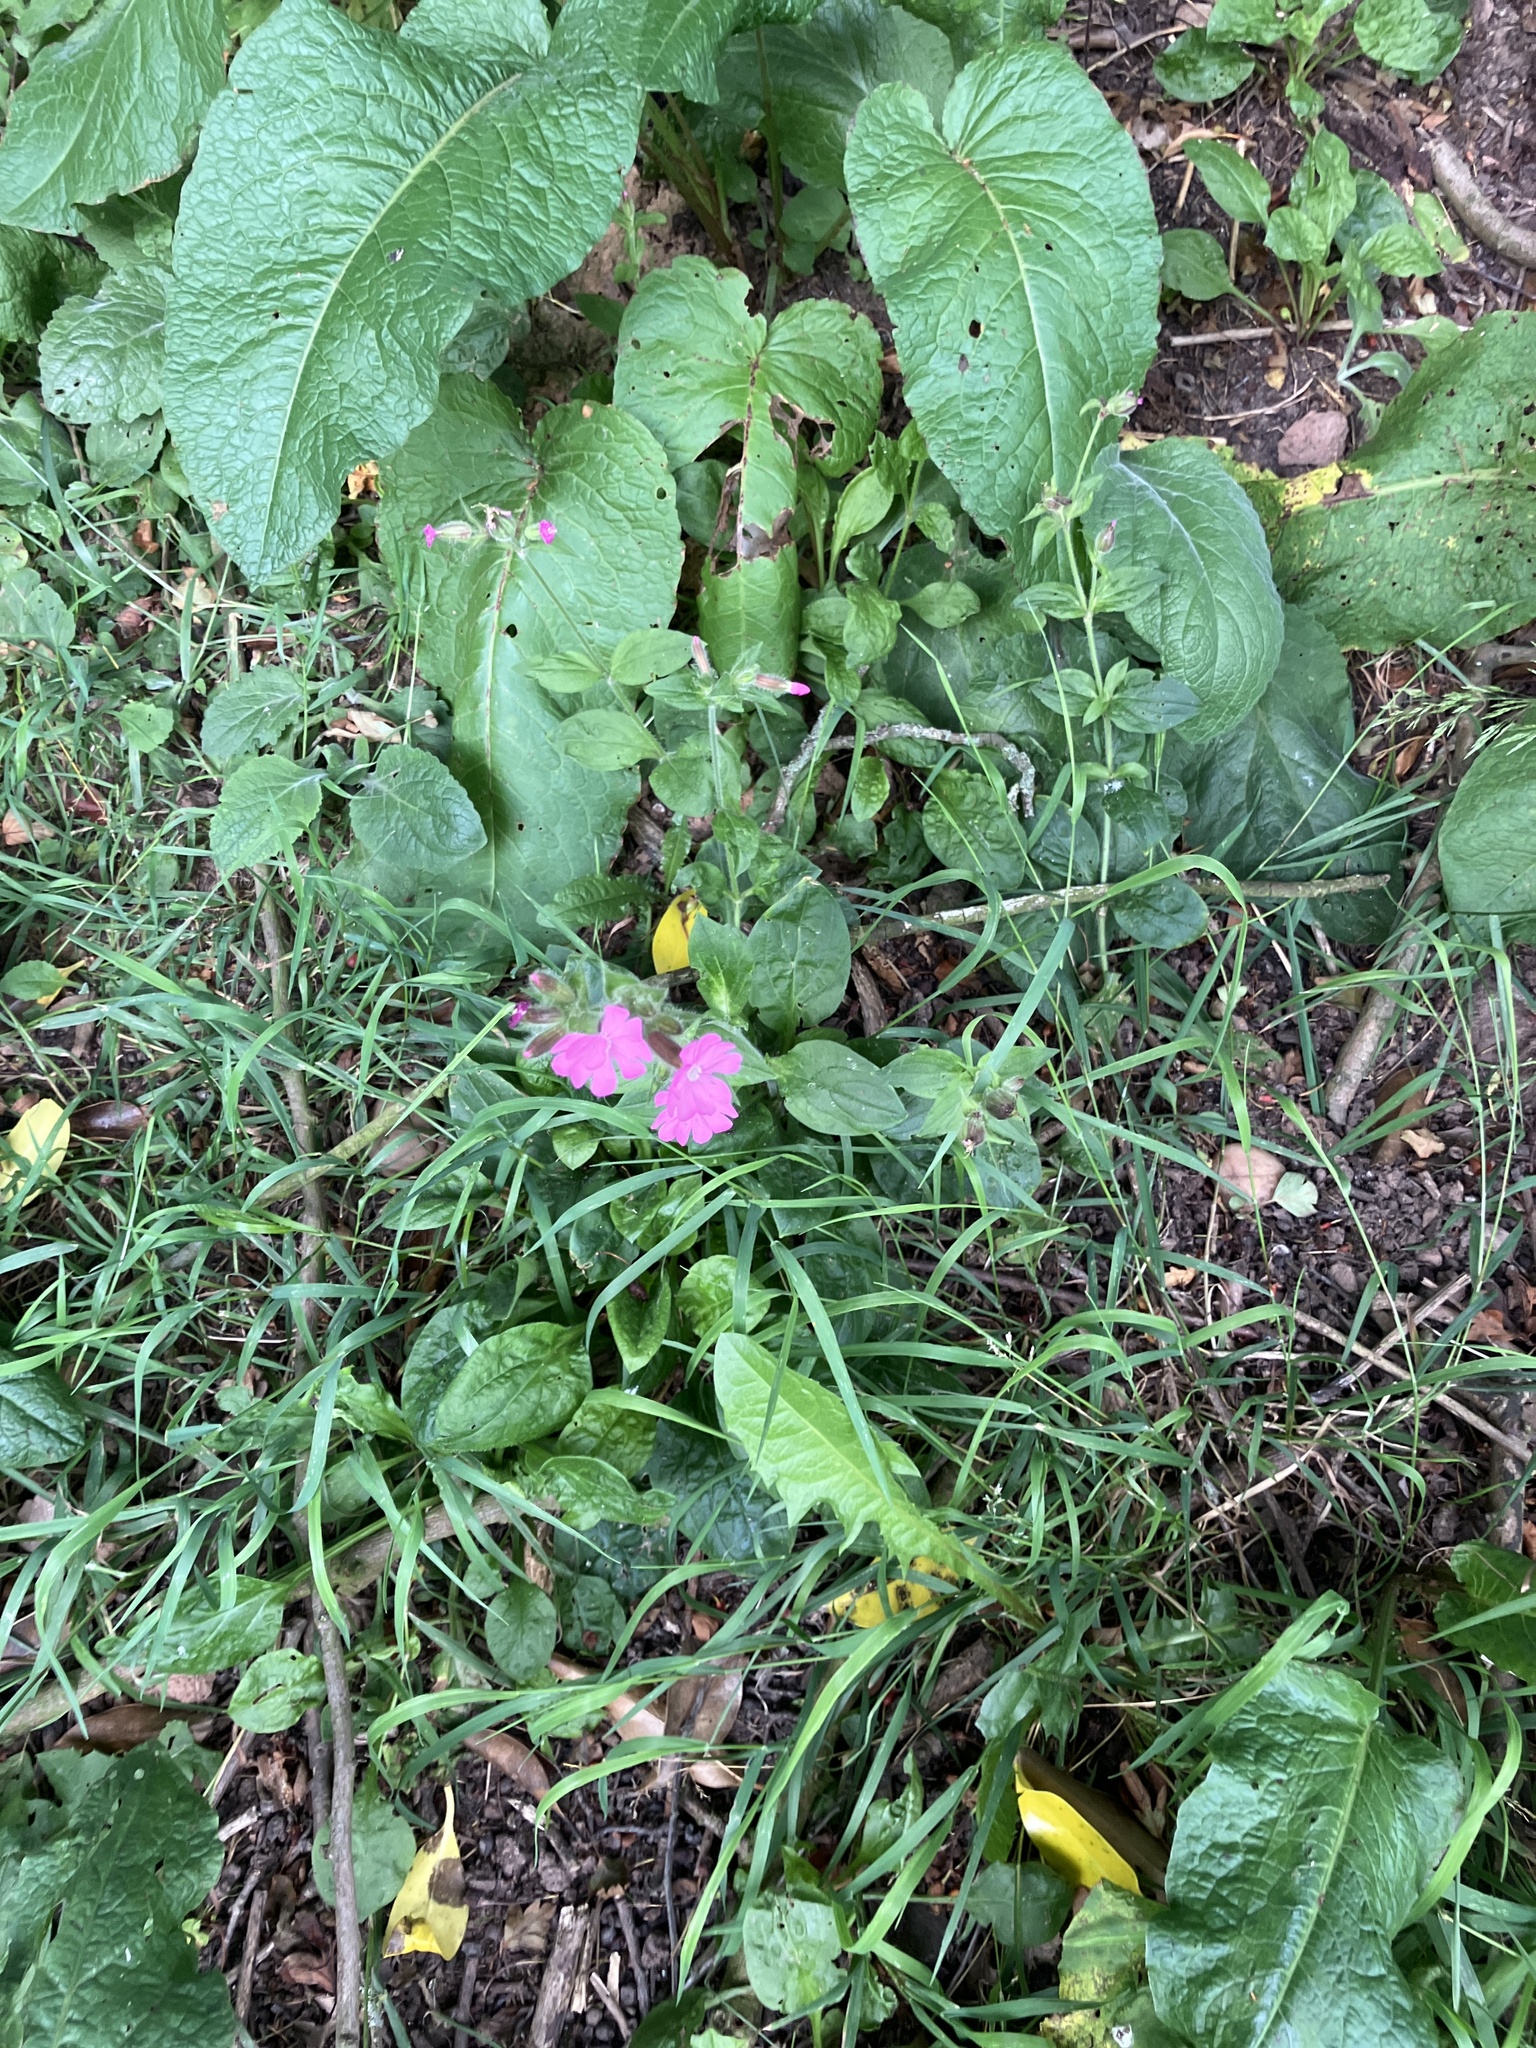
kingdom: Plantae
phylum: Tracheophyta
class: Magnoliopsida
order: Caryophyllales
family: Caryophyllaceae
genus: Silene
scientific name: Silene dioica
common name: Red campion
